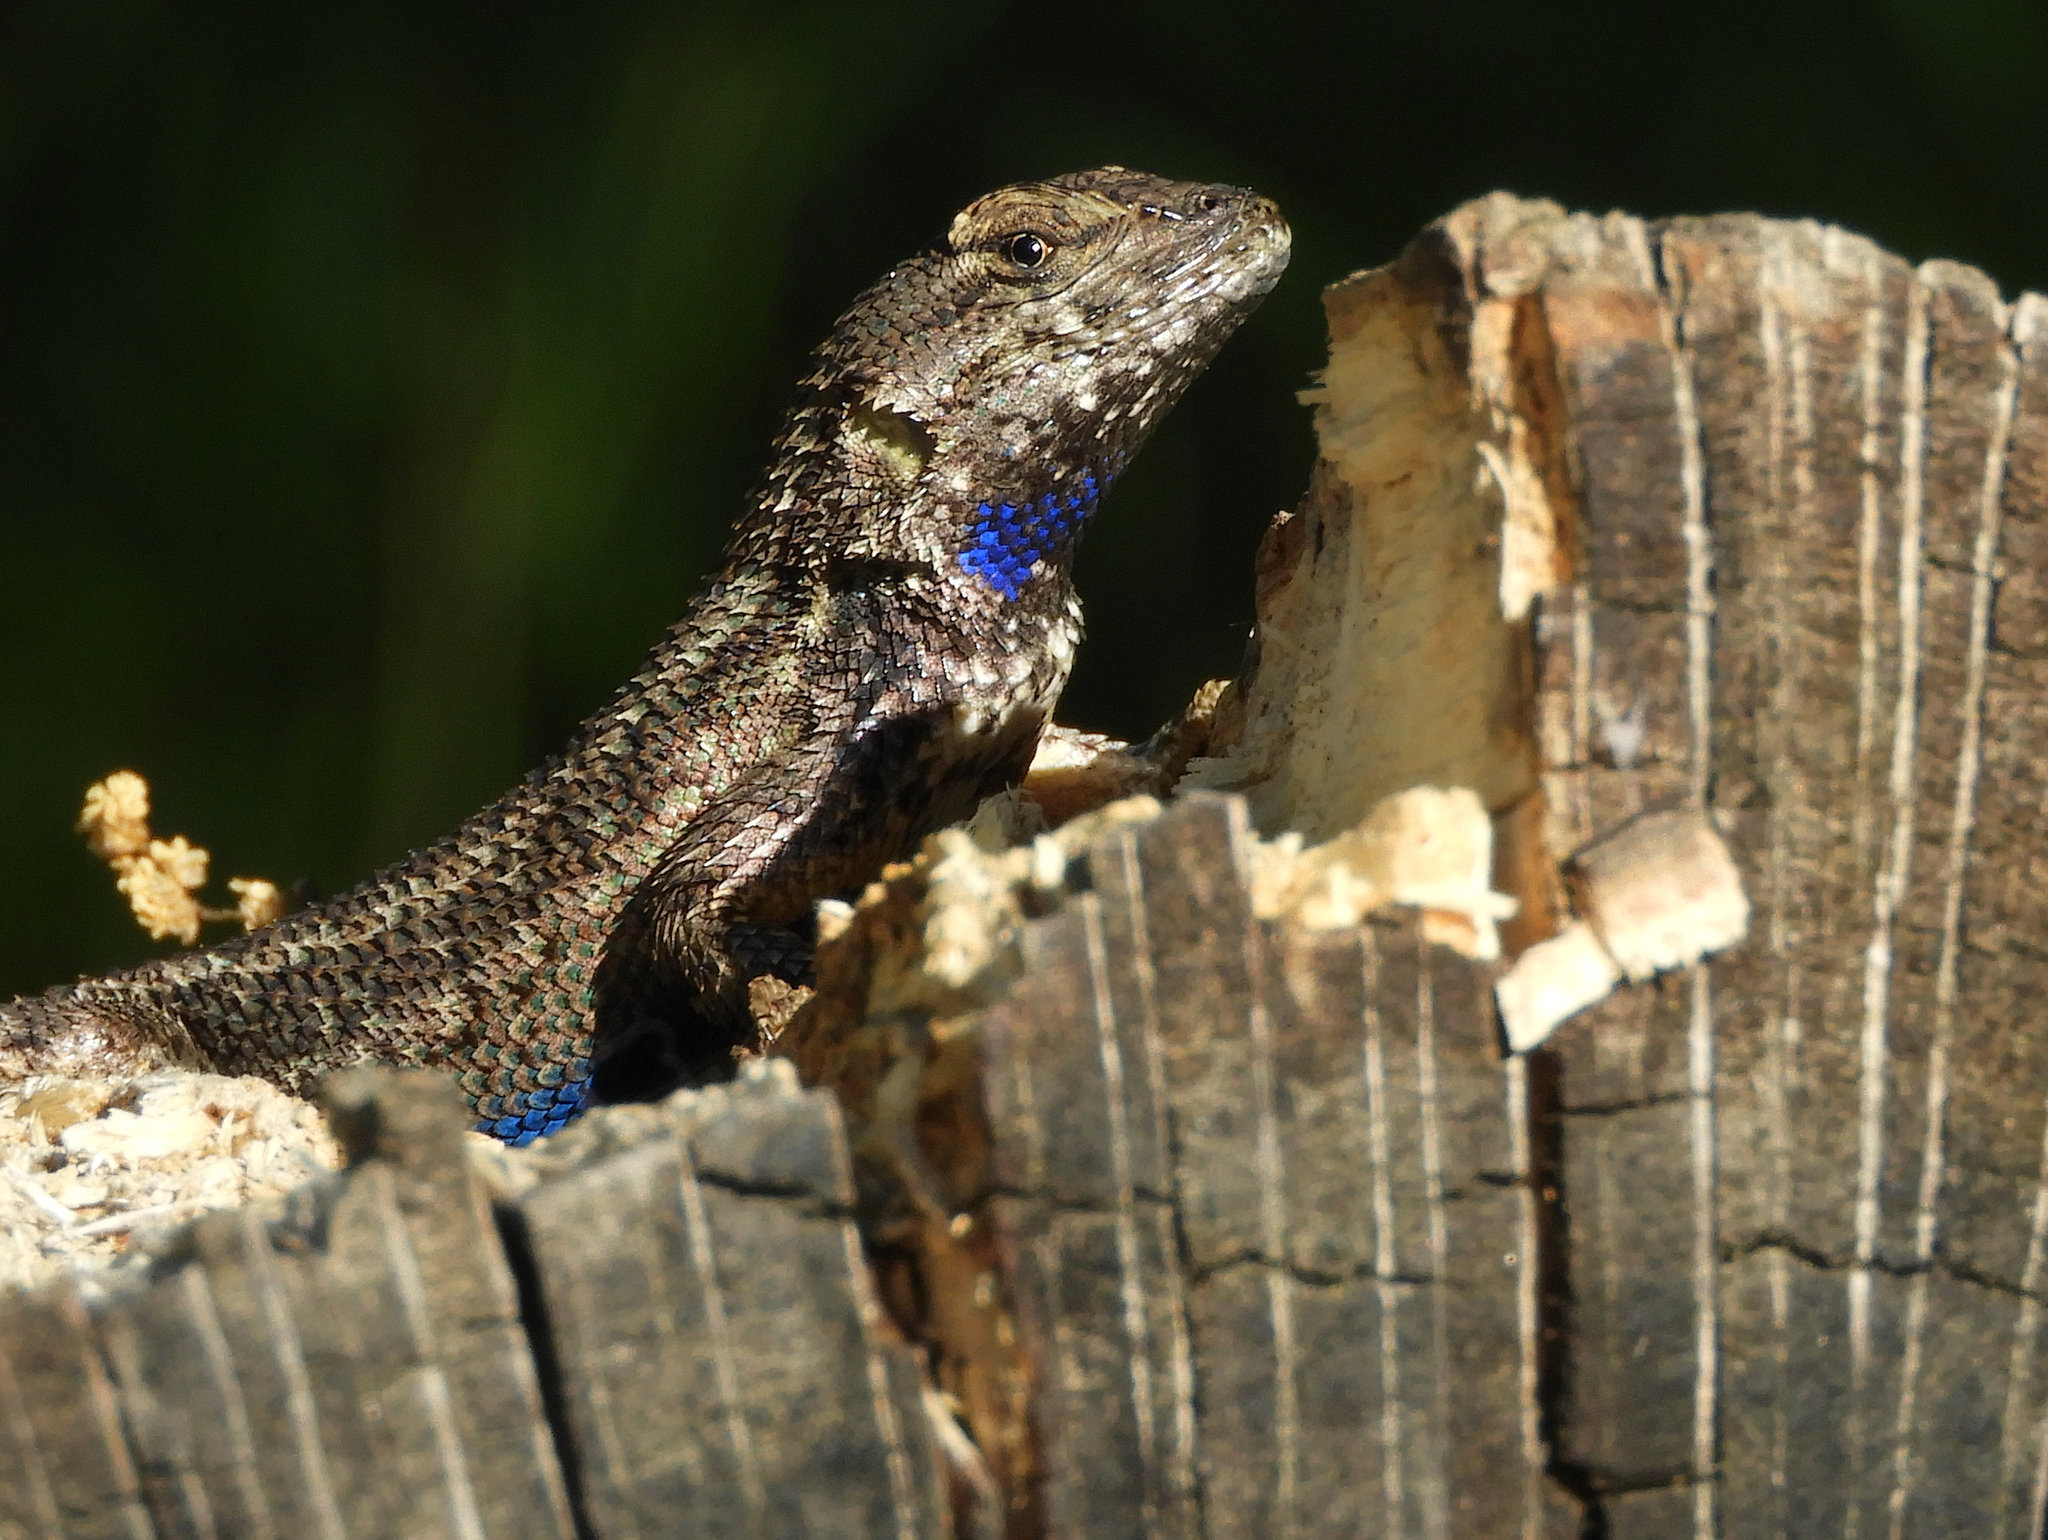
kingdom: Animalia
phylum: Chordata
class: Squamata
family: Phrynosomatidae
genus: Sceloporus
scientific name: Sceloporus occidentalis
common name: Western fence lizard
